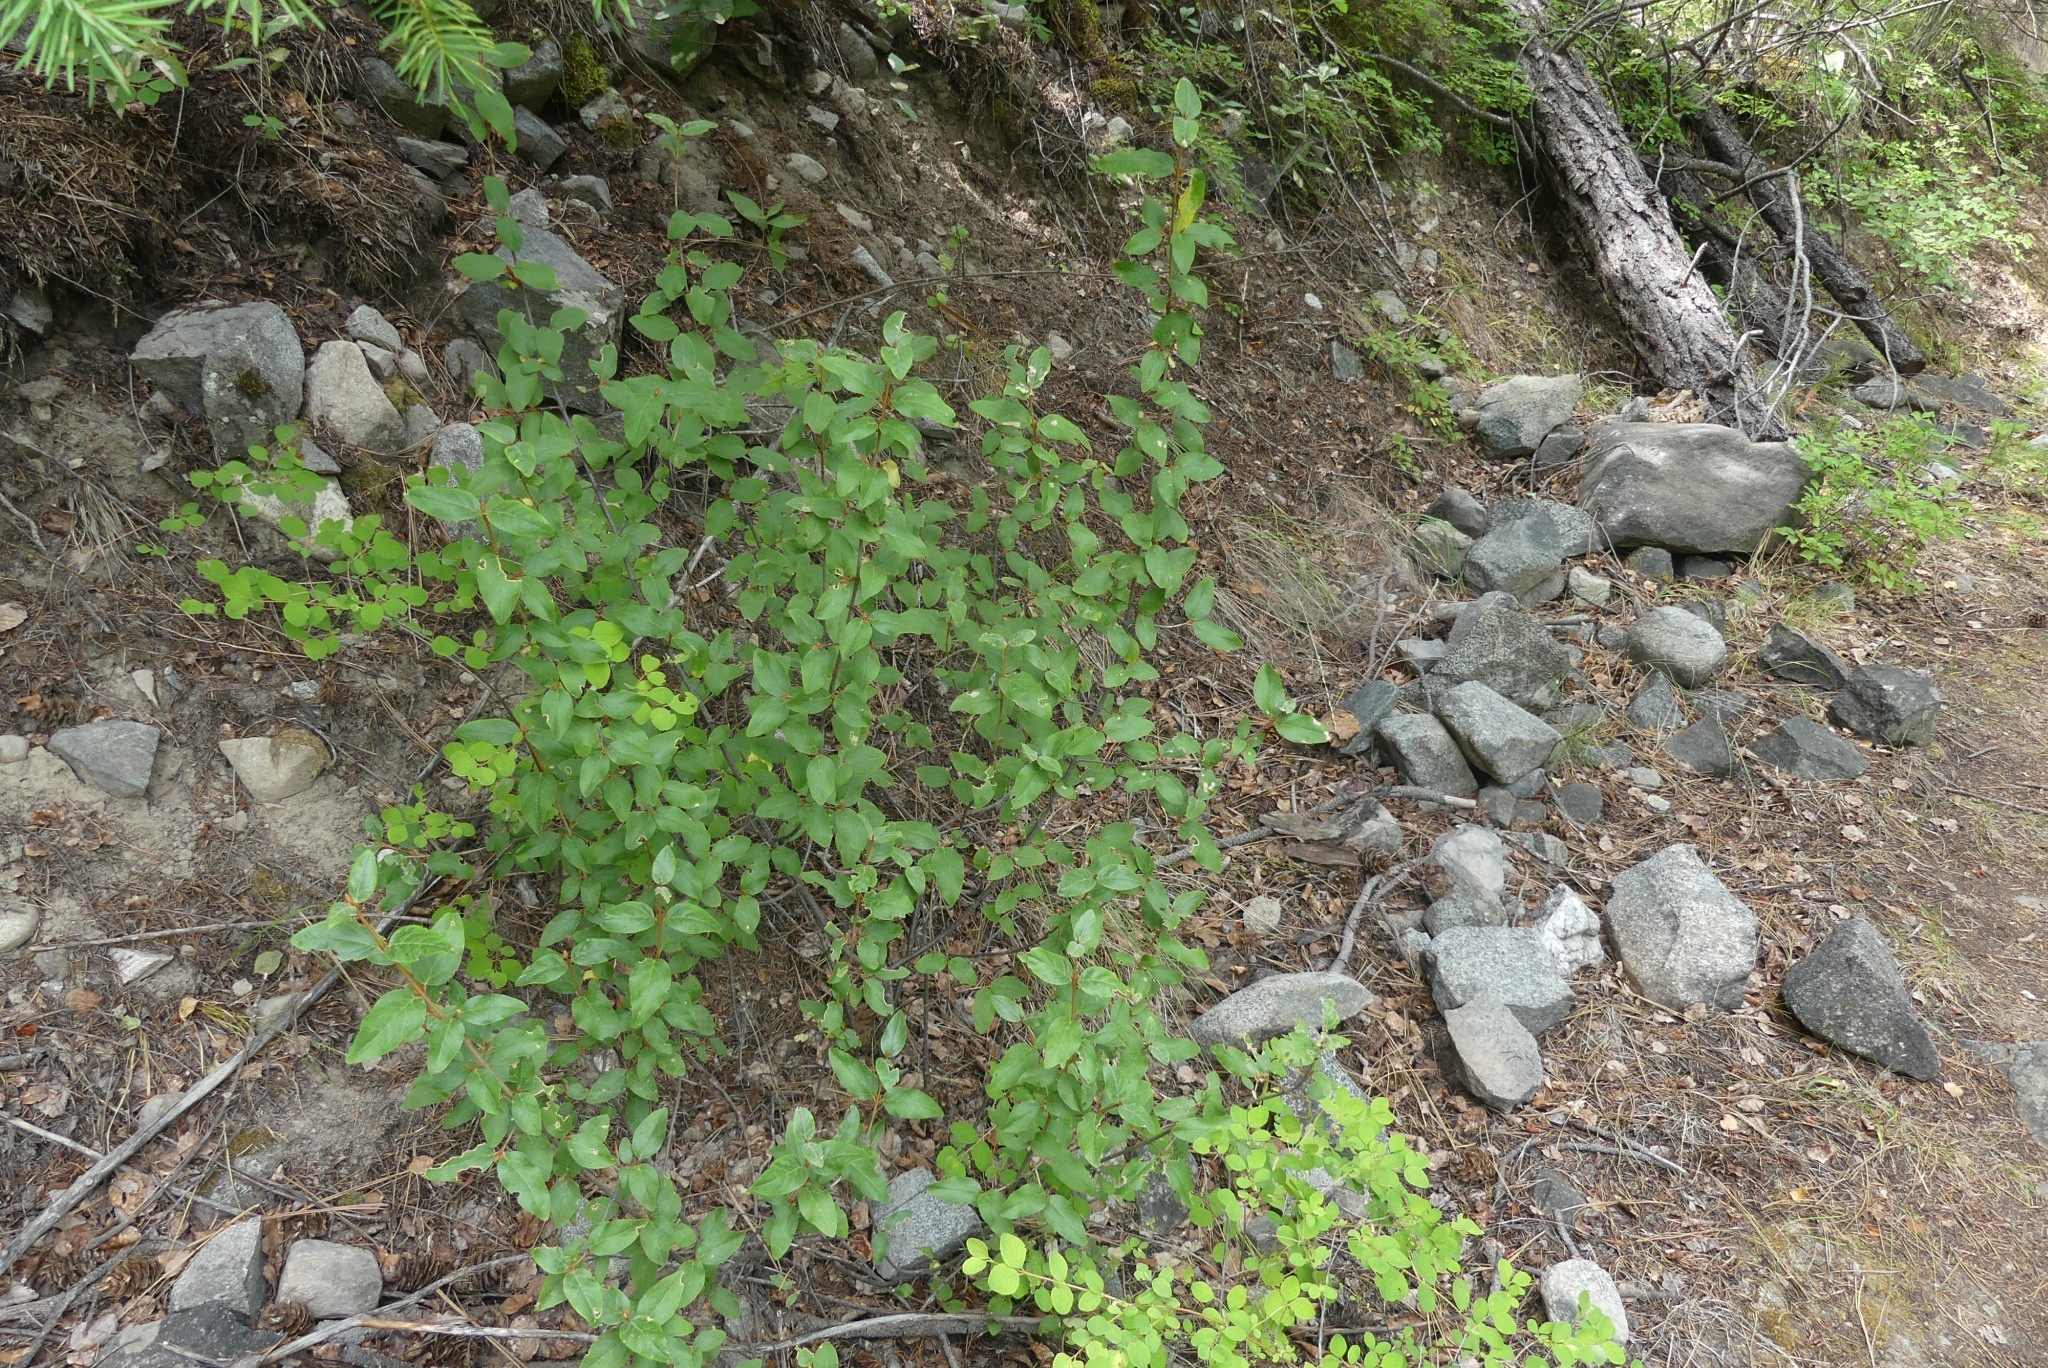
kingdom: Plantae
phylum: Tracheophyta
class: Magnoliopsida
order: Rosales
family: Elaeagnaceae
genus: Shepherdia
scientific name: Shepherdia canadensis
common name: Soapberry
